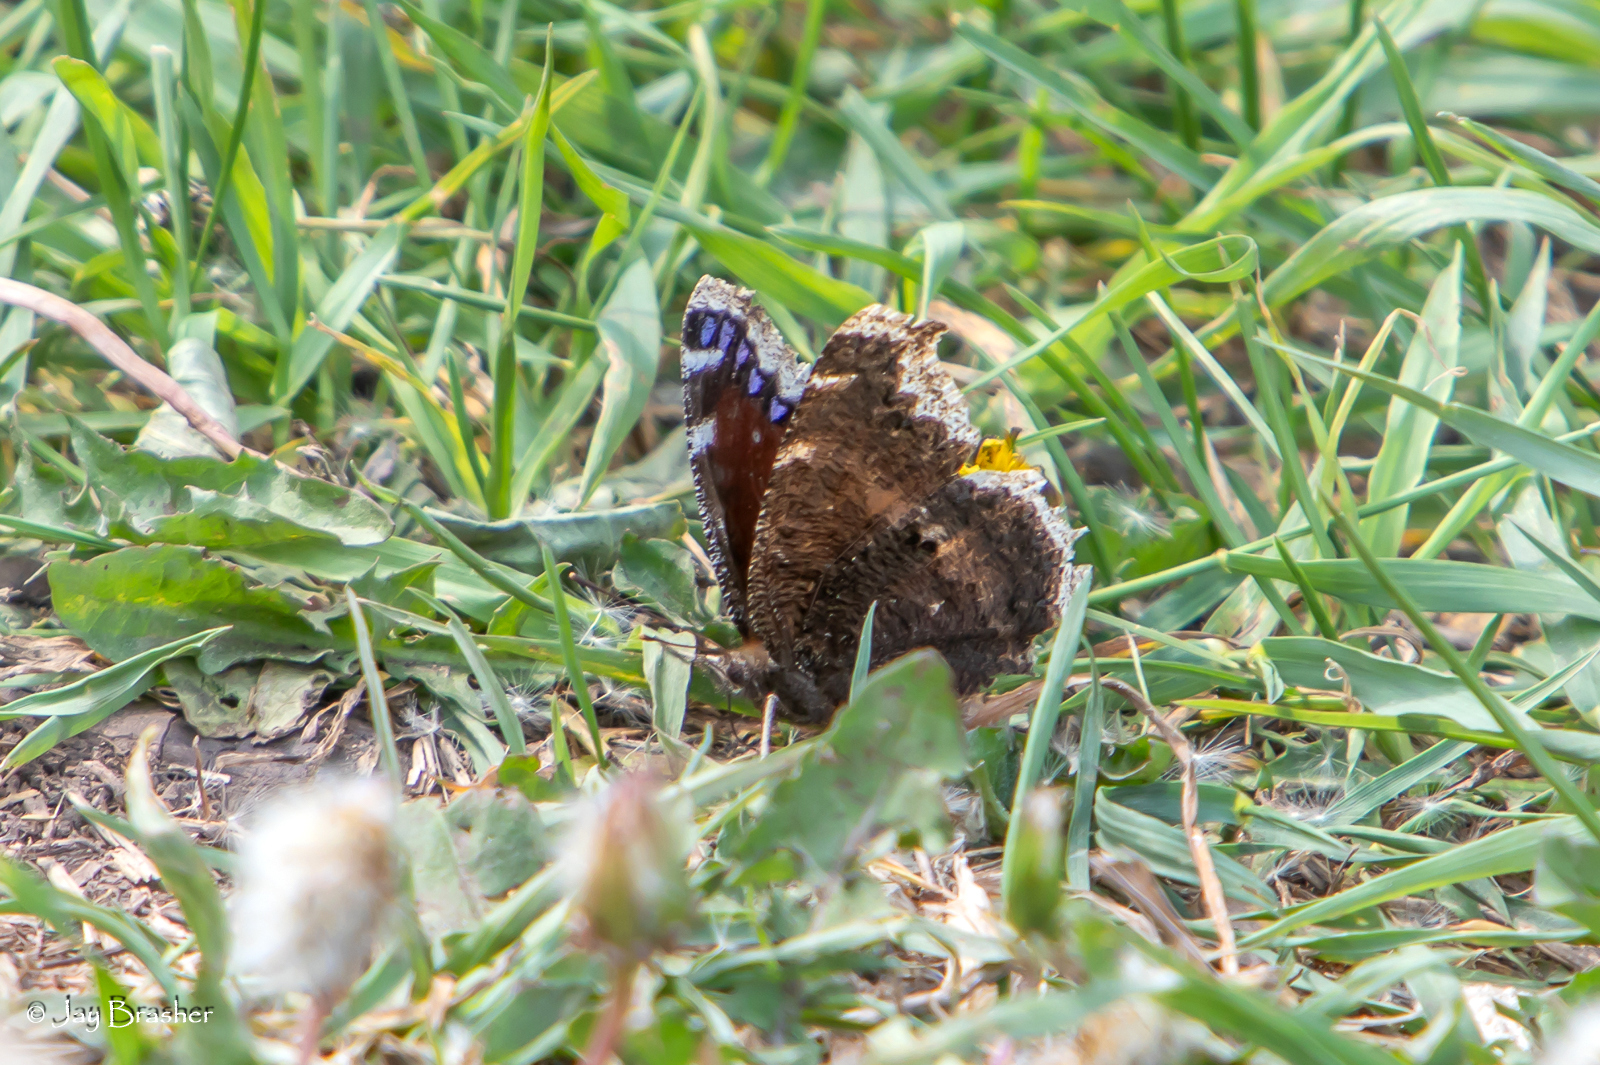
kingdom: Animalia
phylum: Arthropoda
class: Insecta
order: Lepidoptera
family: Nymphalidae
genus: Nymphalis
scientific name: Nymphalis antiopa
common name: Camberwell beauty
